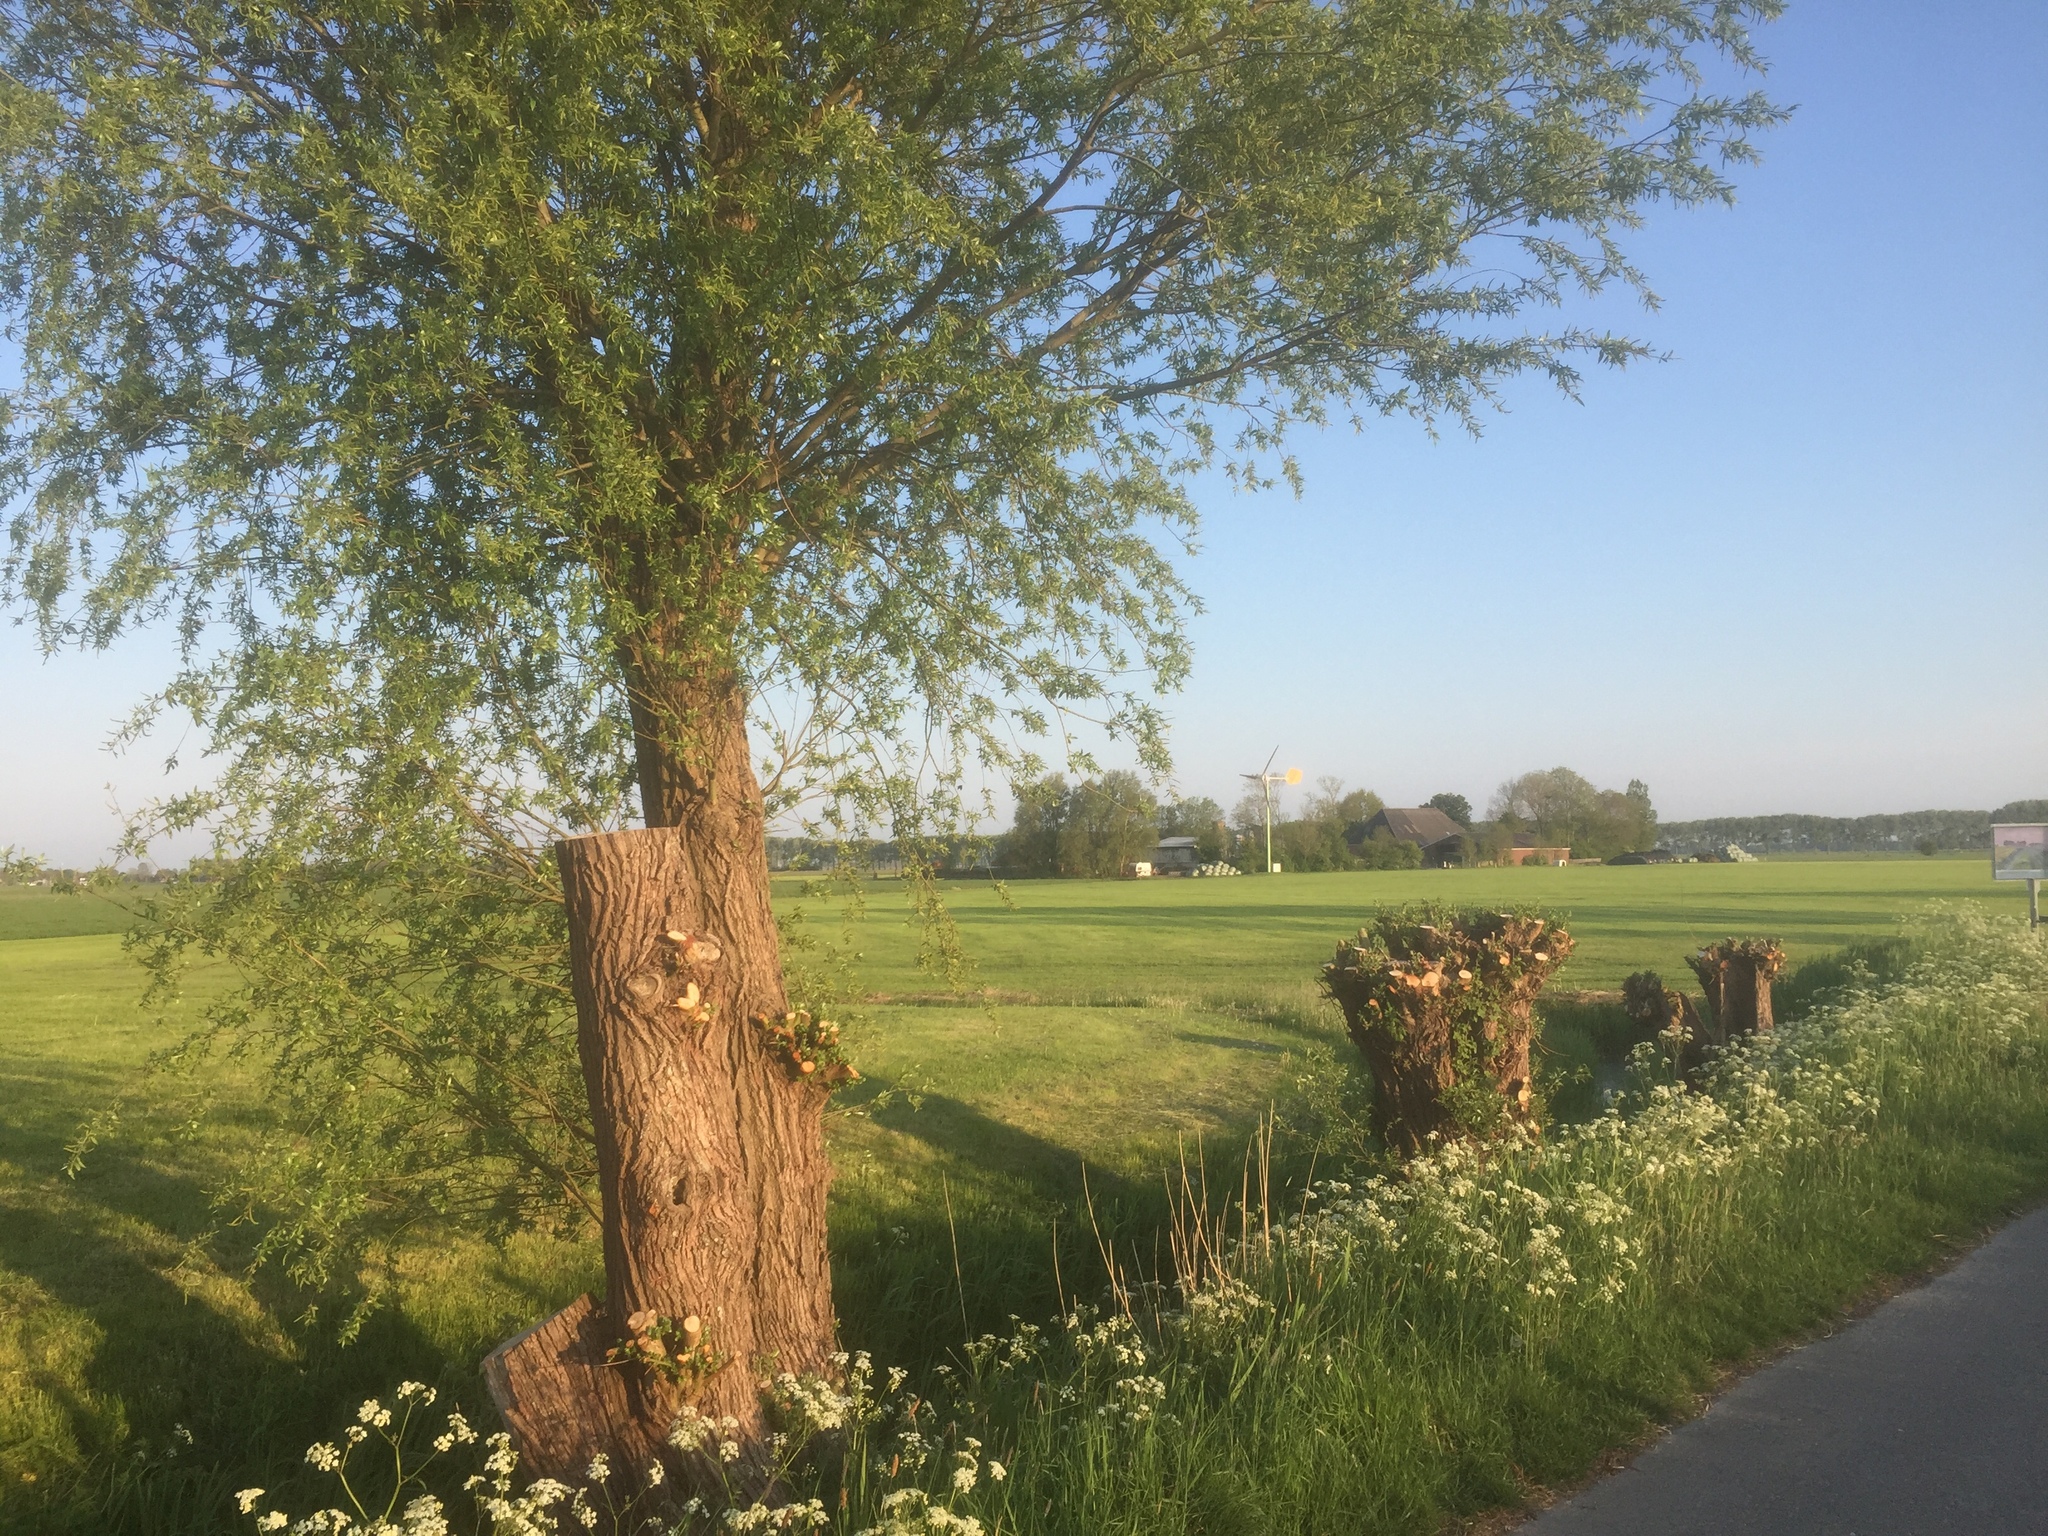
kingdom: Plantae
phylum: Tracheophyta
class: Magnoliopsida
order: Malpighiales
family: Salicaceae
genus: Salix
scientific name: Salix alba
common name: White willow
